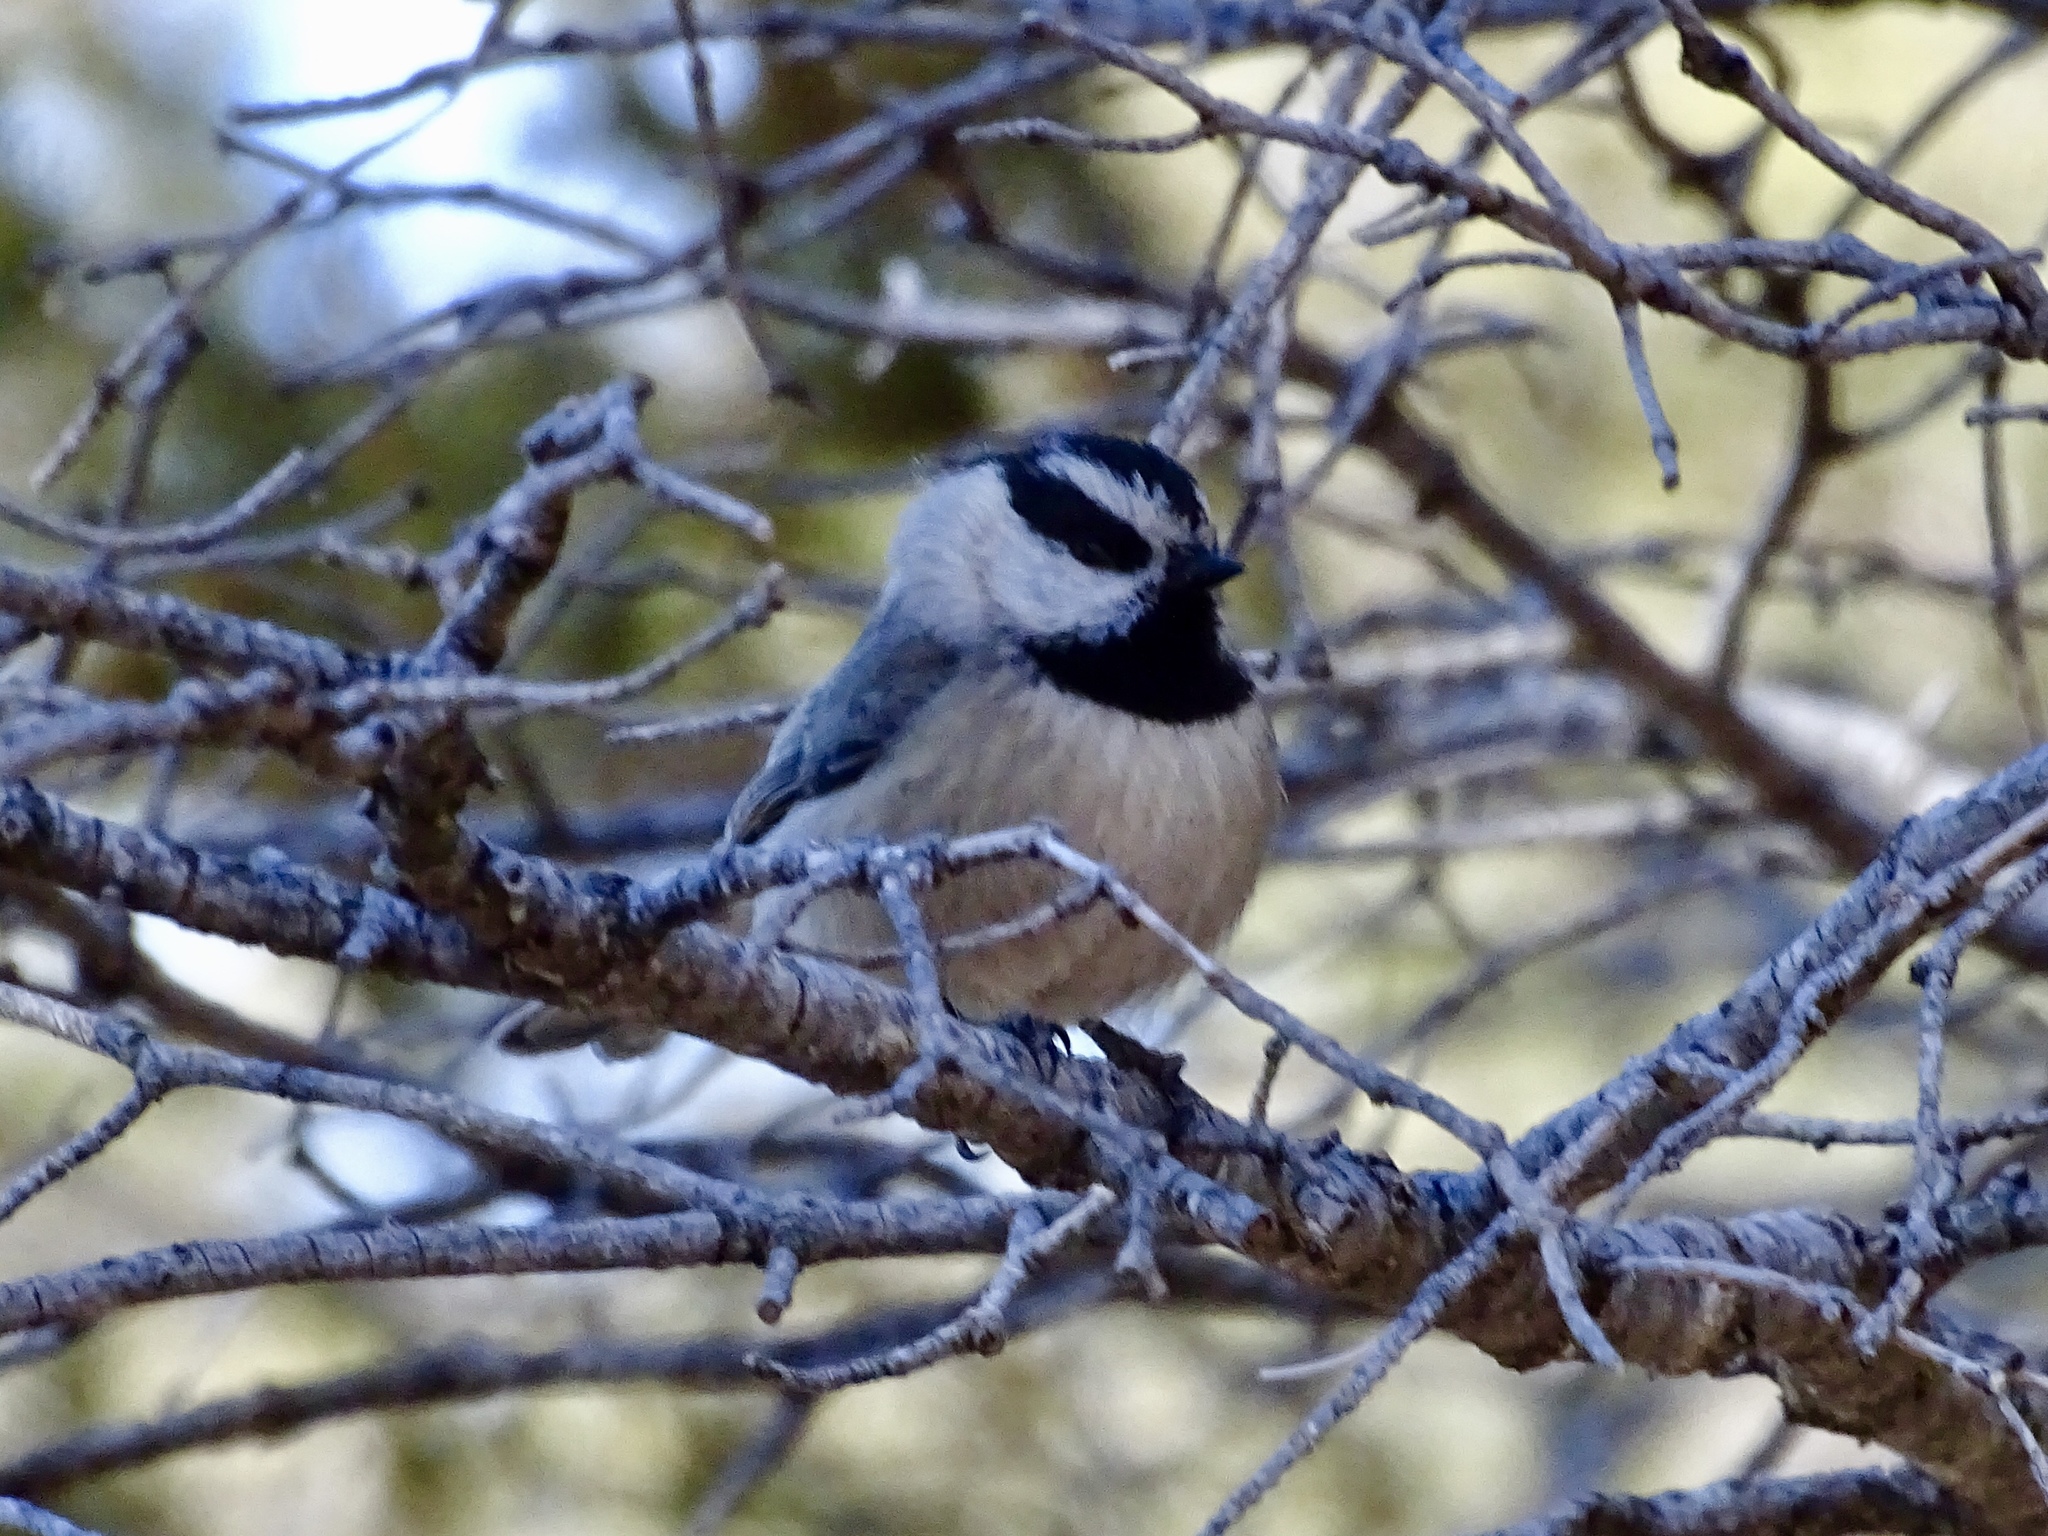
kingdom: Animalia
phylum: Chordata
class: Aves
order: Passeriformes
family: Paridae
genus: Poecile
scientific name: Poecile gambeli
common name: Mountain chickadee
